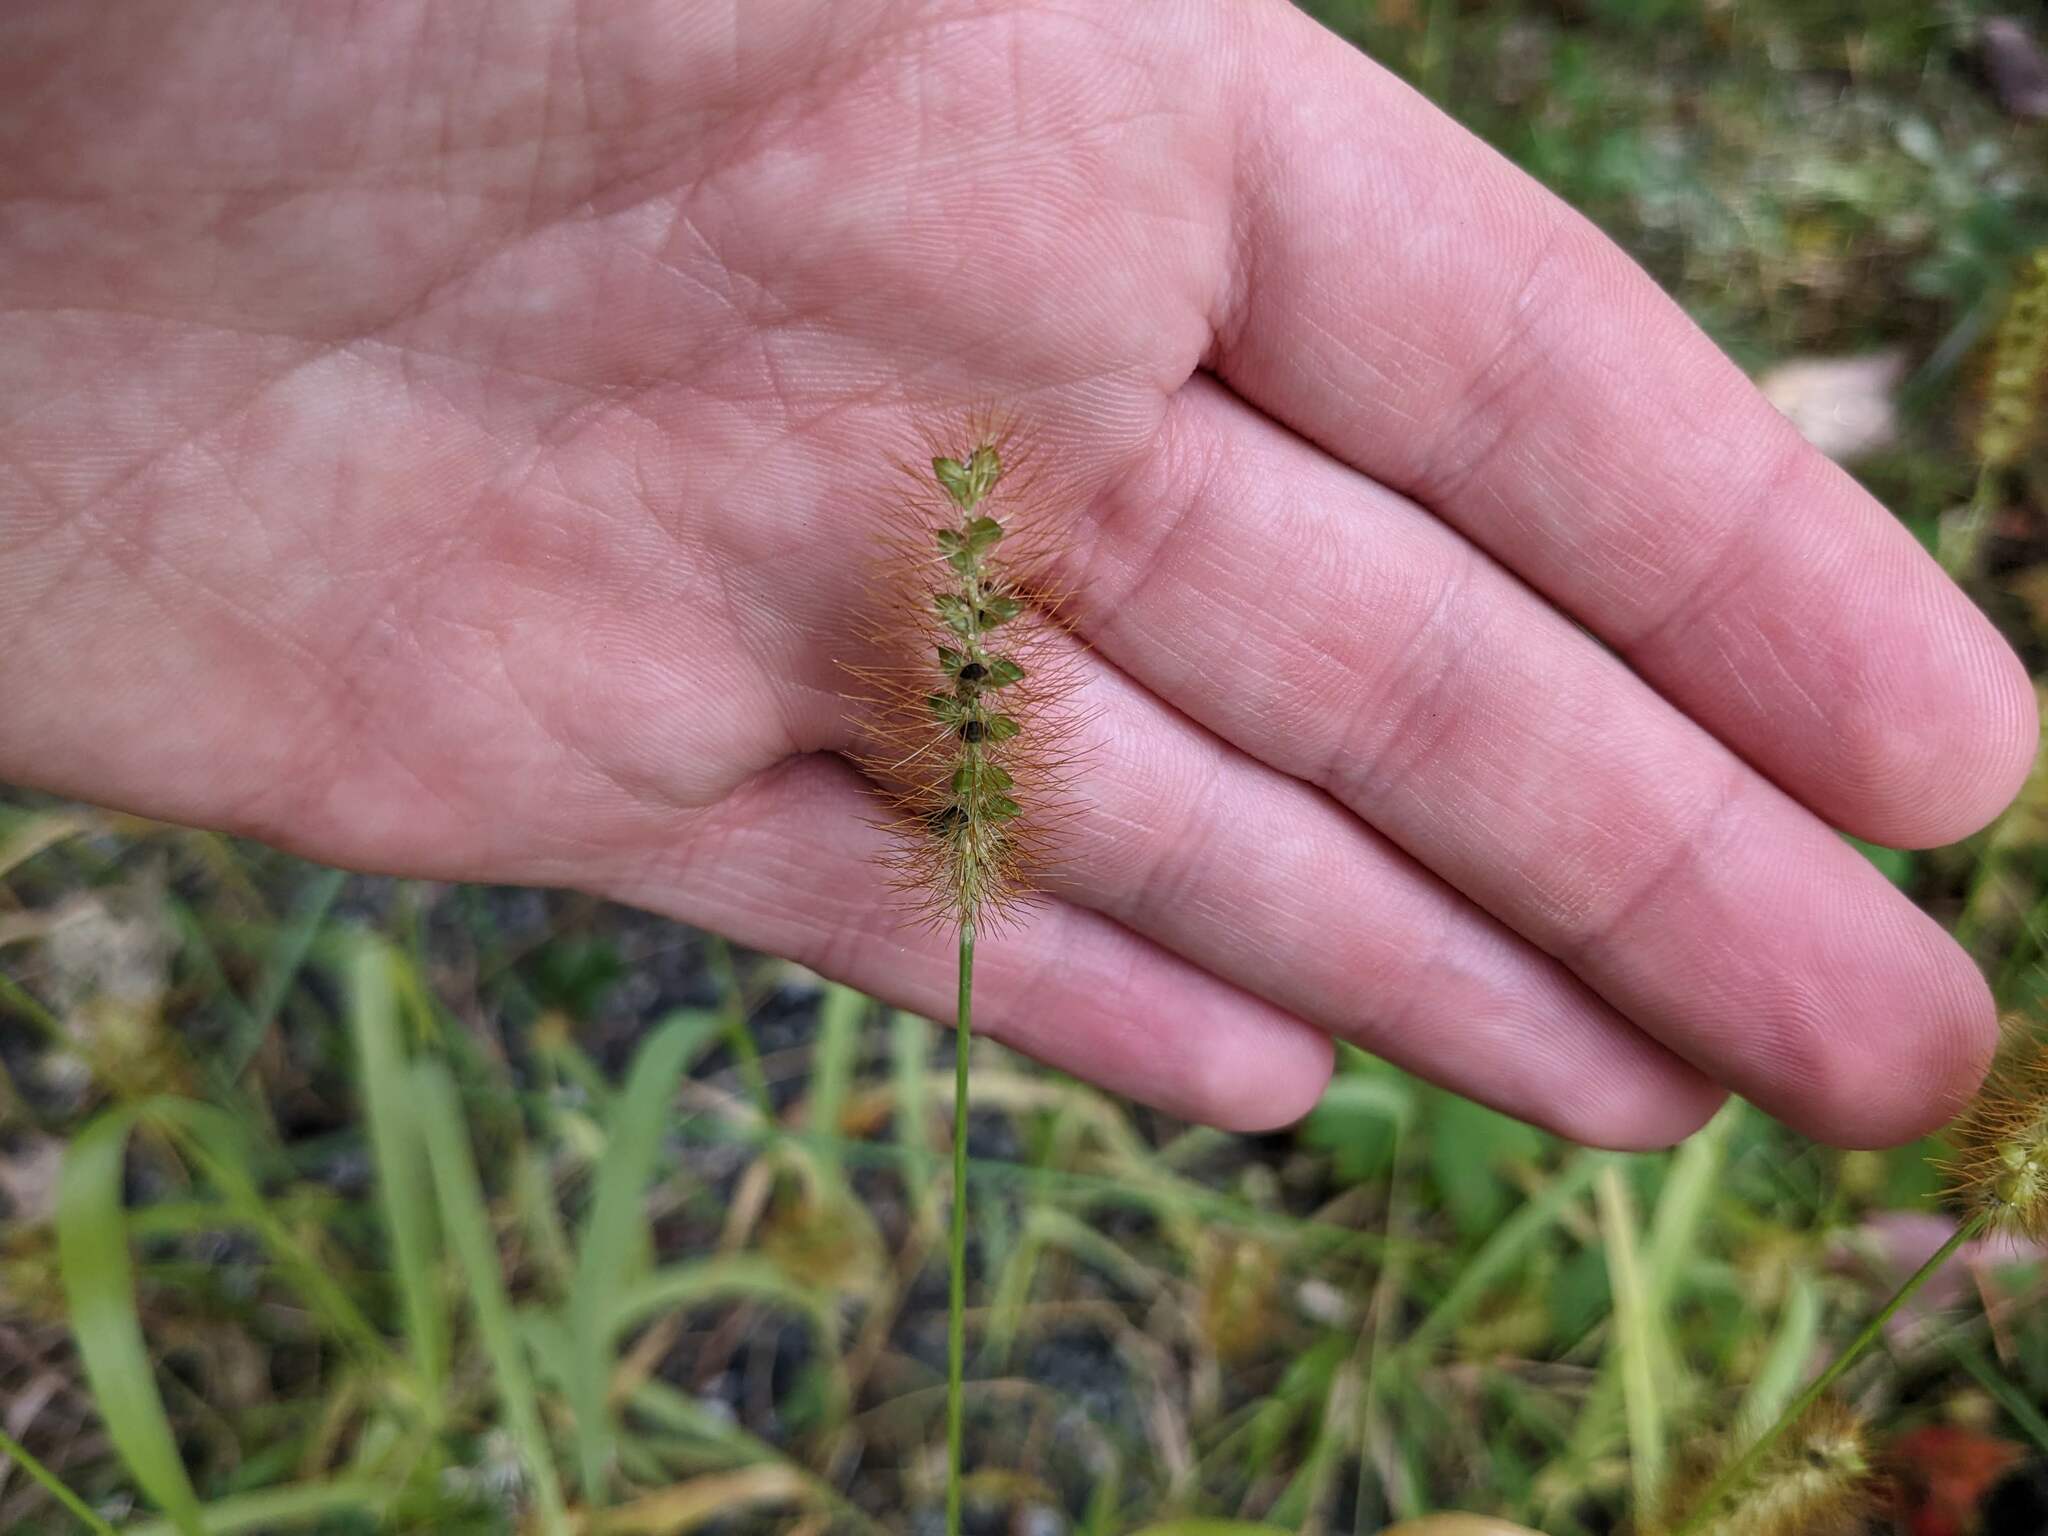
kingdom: Plantae
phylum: Tracheophyta
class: Liliopsida
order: Poales
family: Poaceae
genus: Setaria
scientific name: Setaria pumila
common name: Yellow bristle-grass
